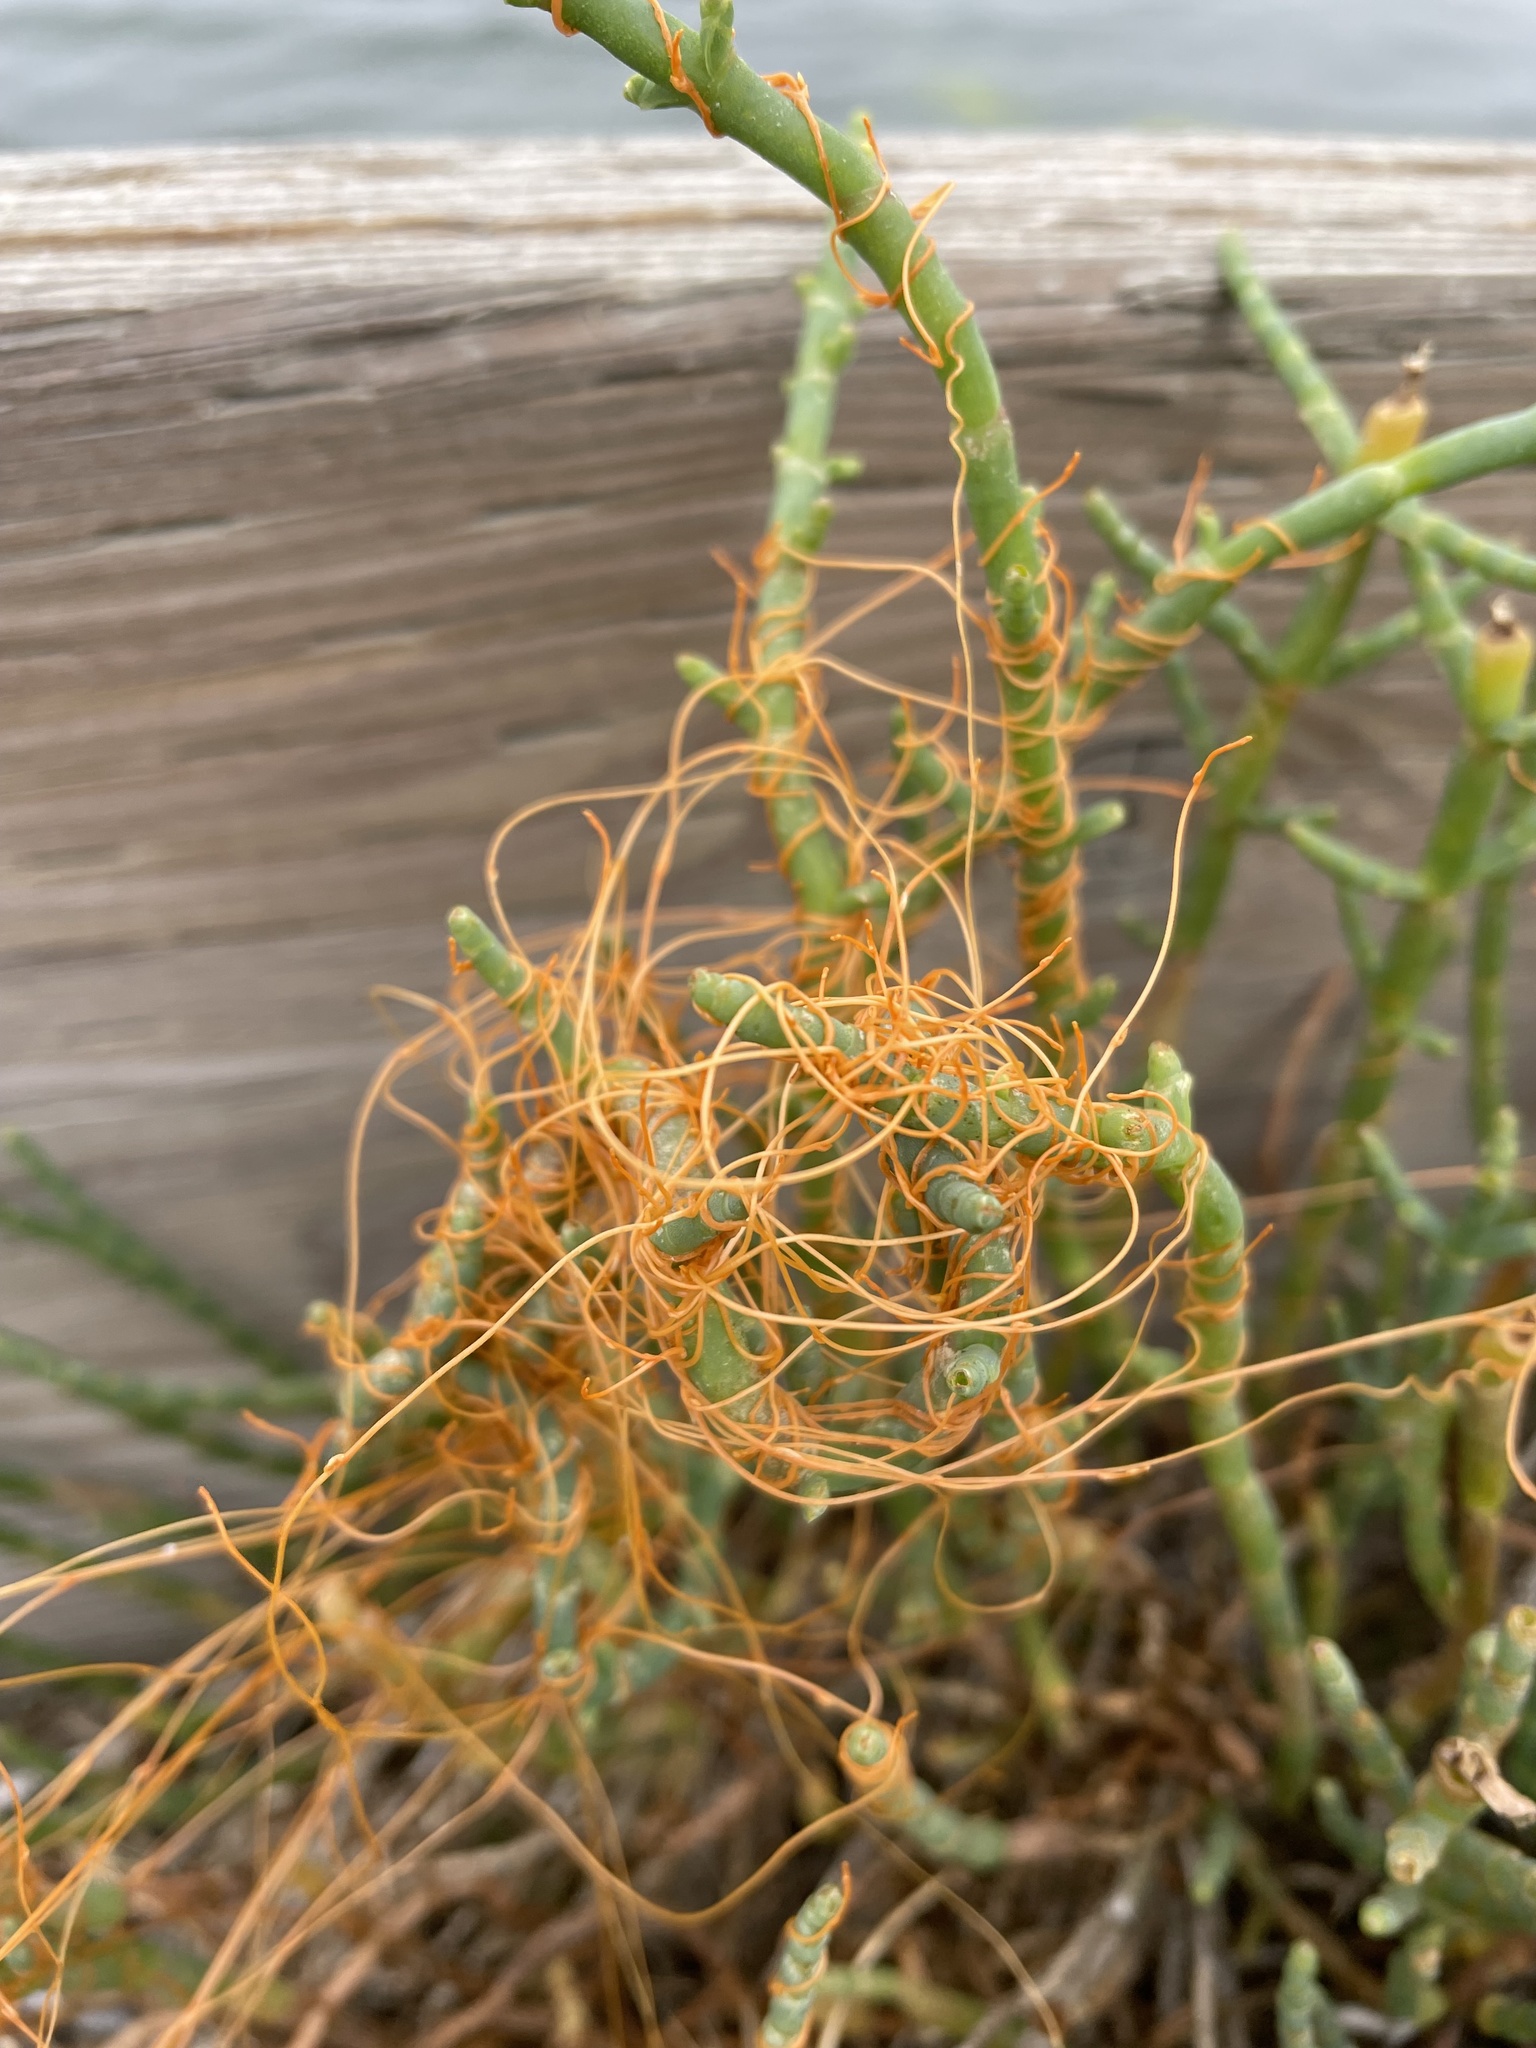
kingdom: Plantae
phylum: Tracheophyta
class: Magnoliopsida
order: Solanales
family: Convolvulaceae
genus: Cuscuta
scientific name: Cuscuta pacifica
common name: Large saltmarsh dodder
